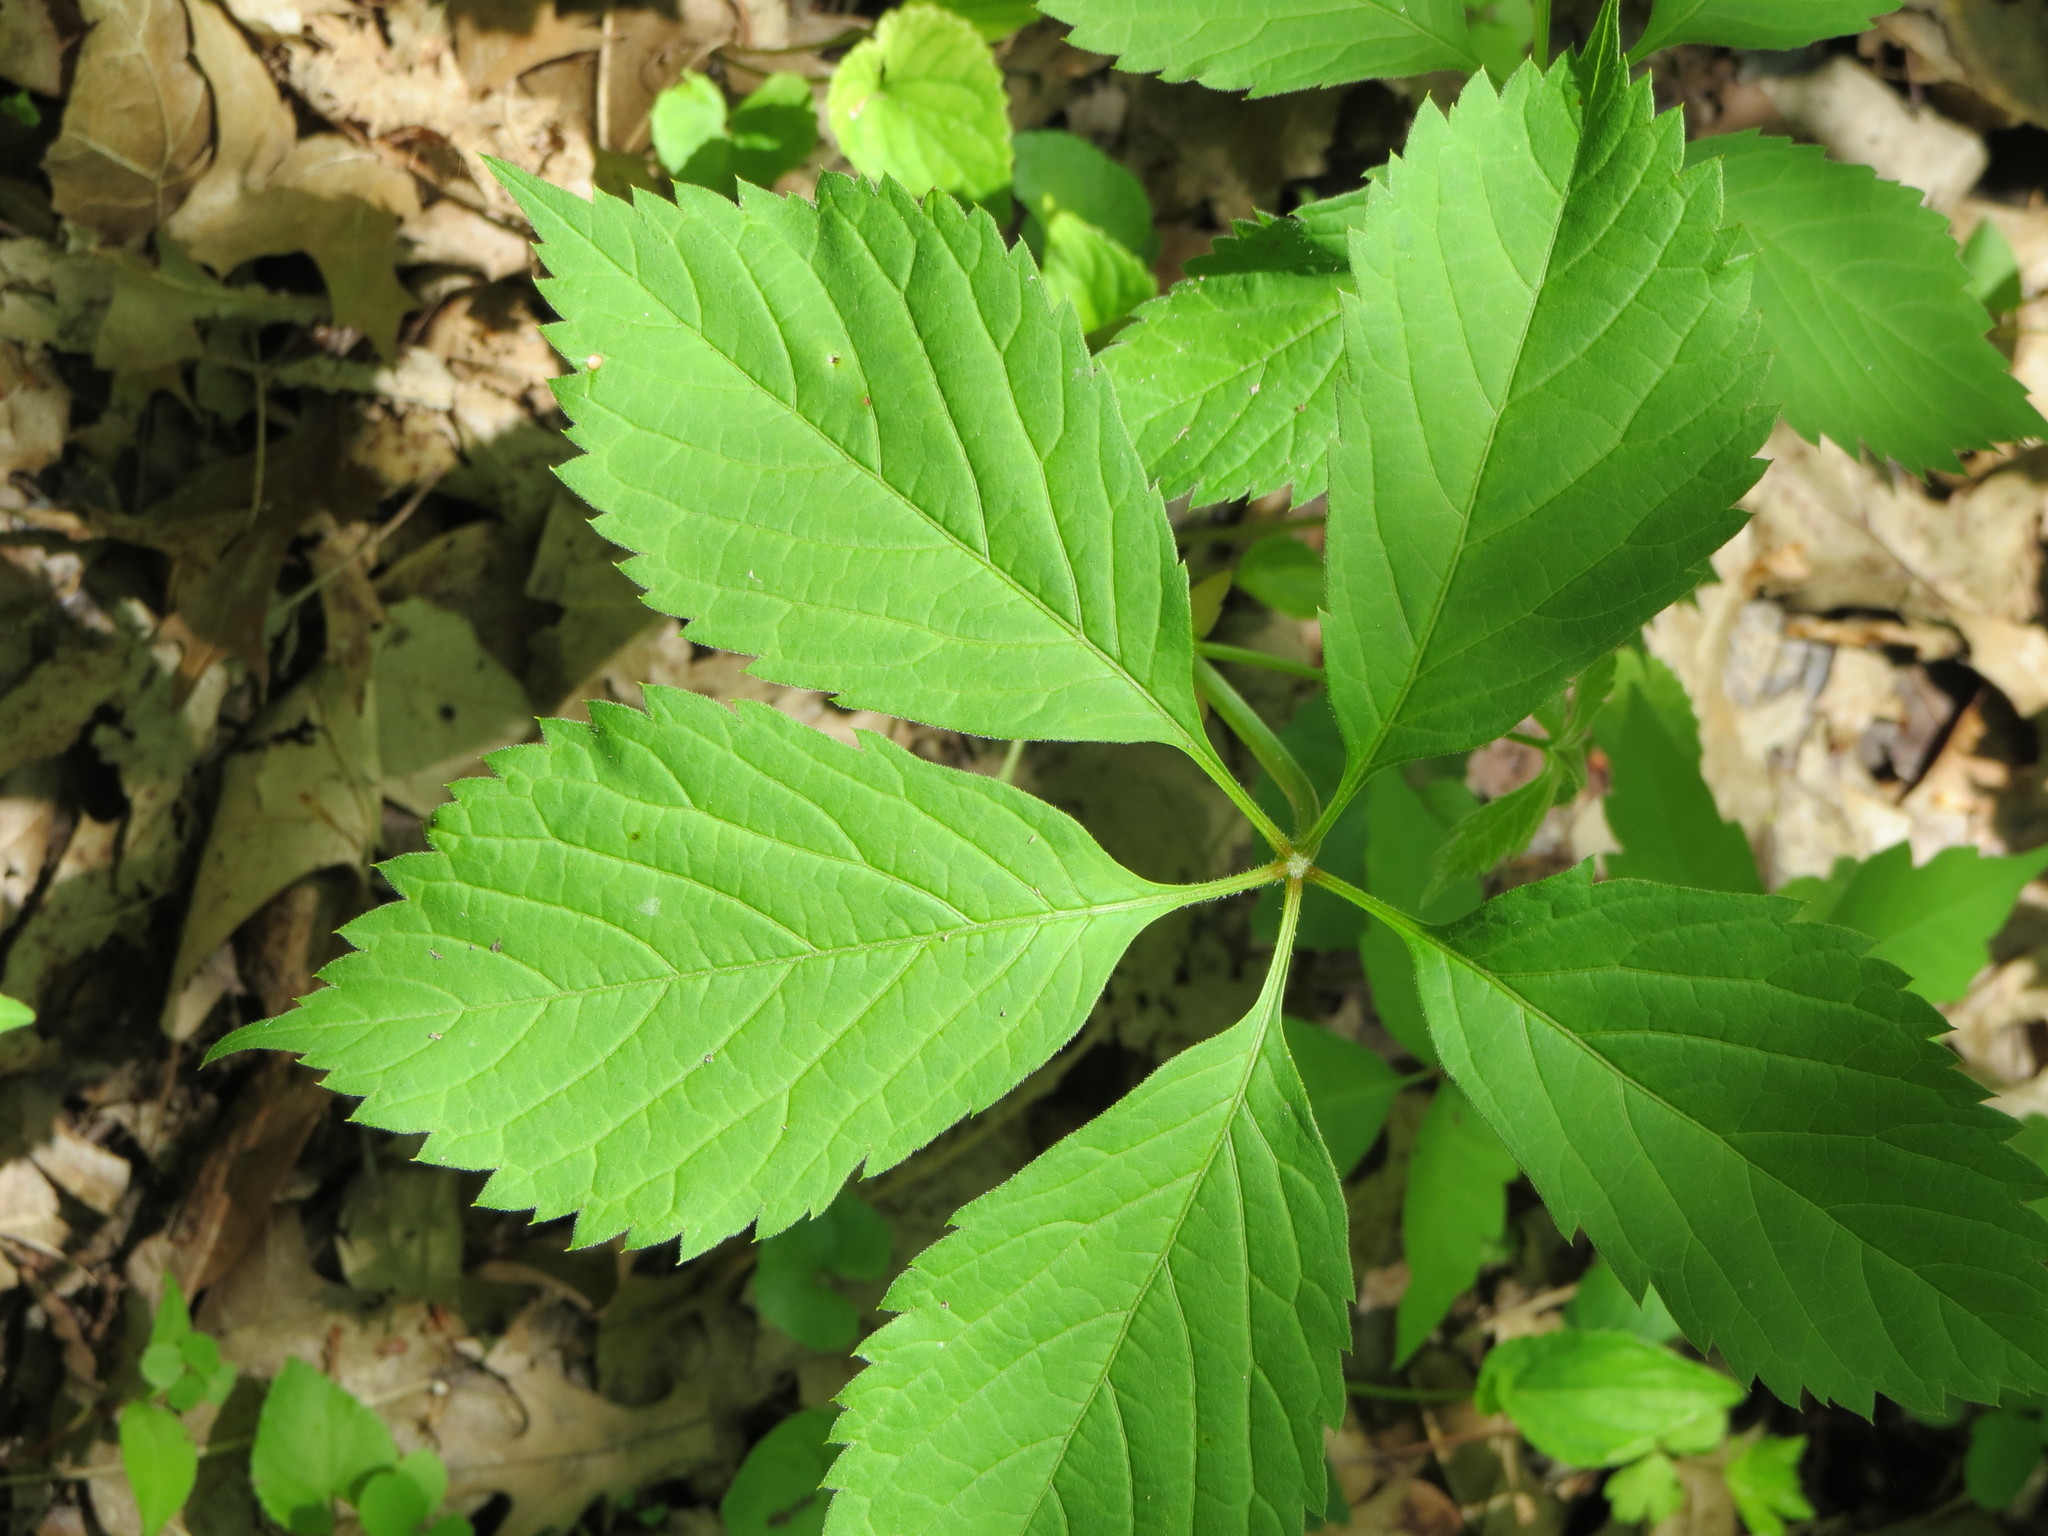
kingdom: Plantae
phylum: Tracheophyta
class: Magnoliopsida
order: Vitales
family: Vitaceae
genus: Parthenocissus
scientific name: Parthenocissus inserta
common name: False virginia-creeper
